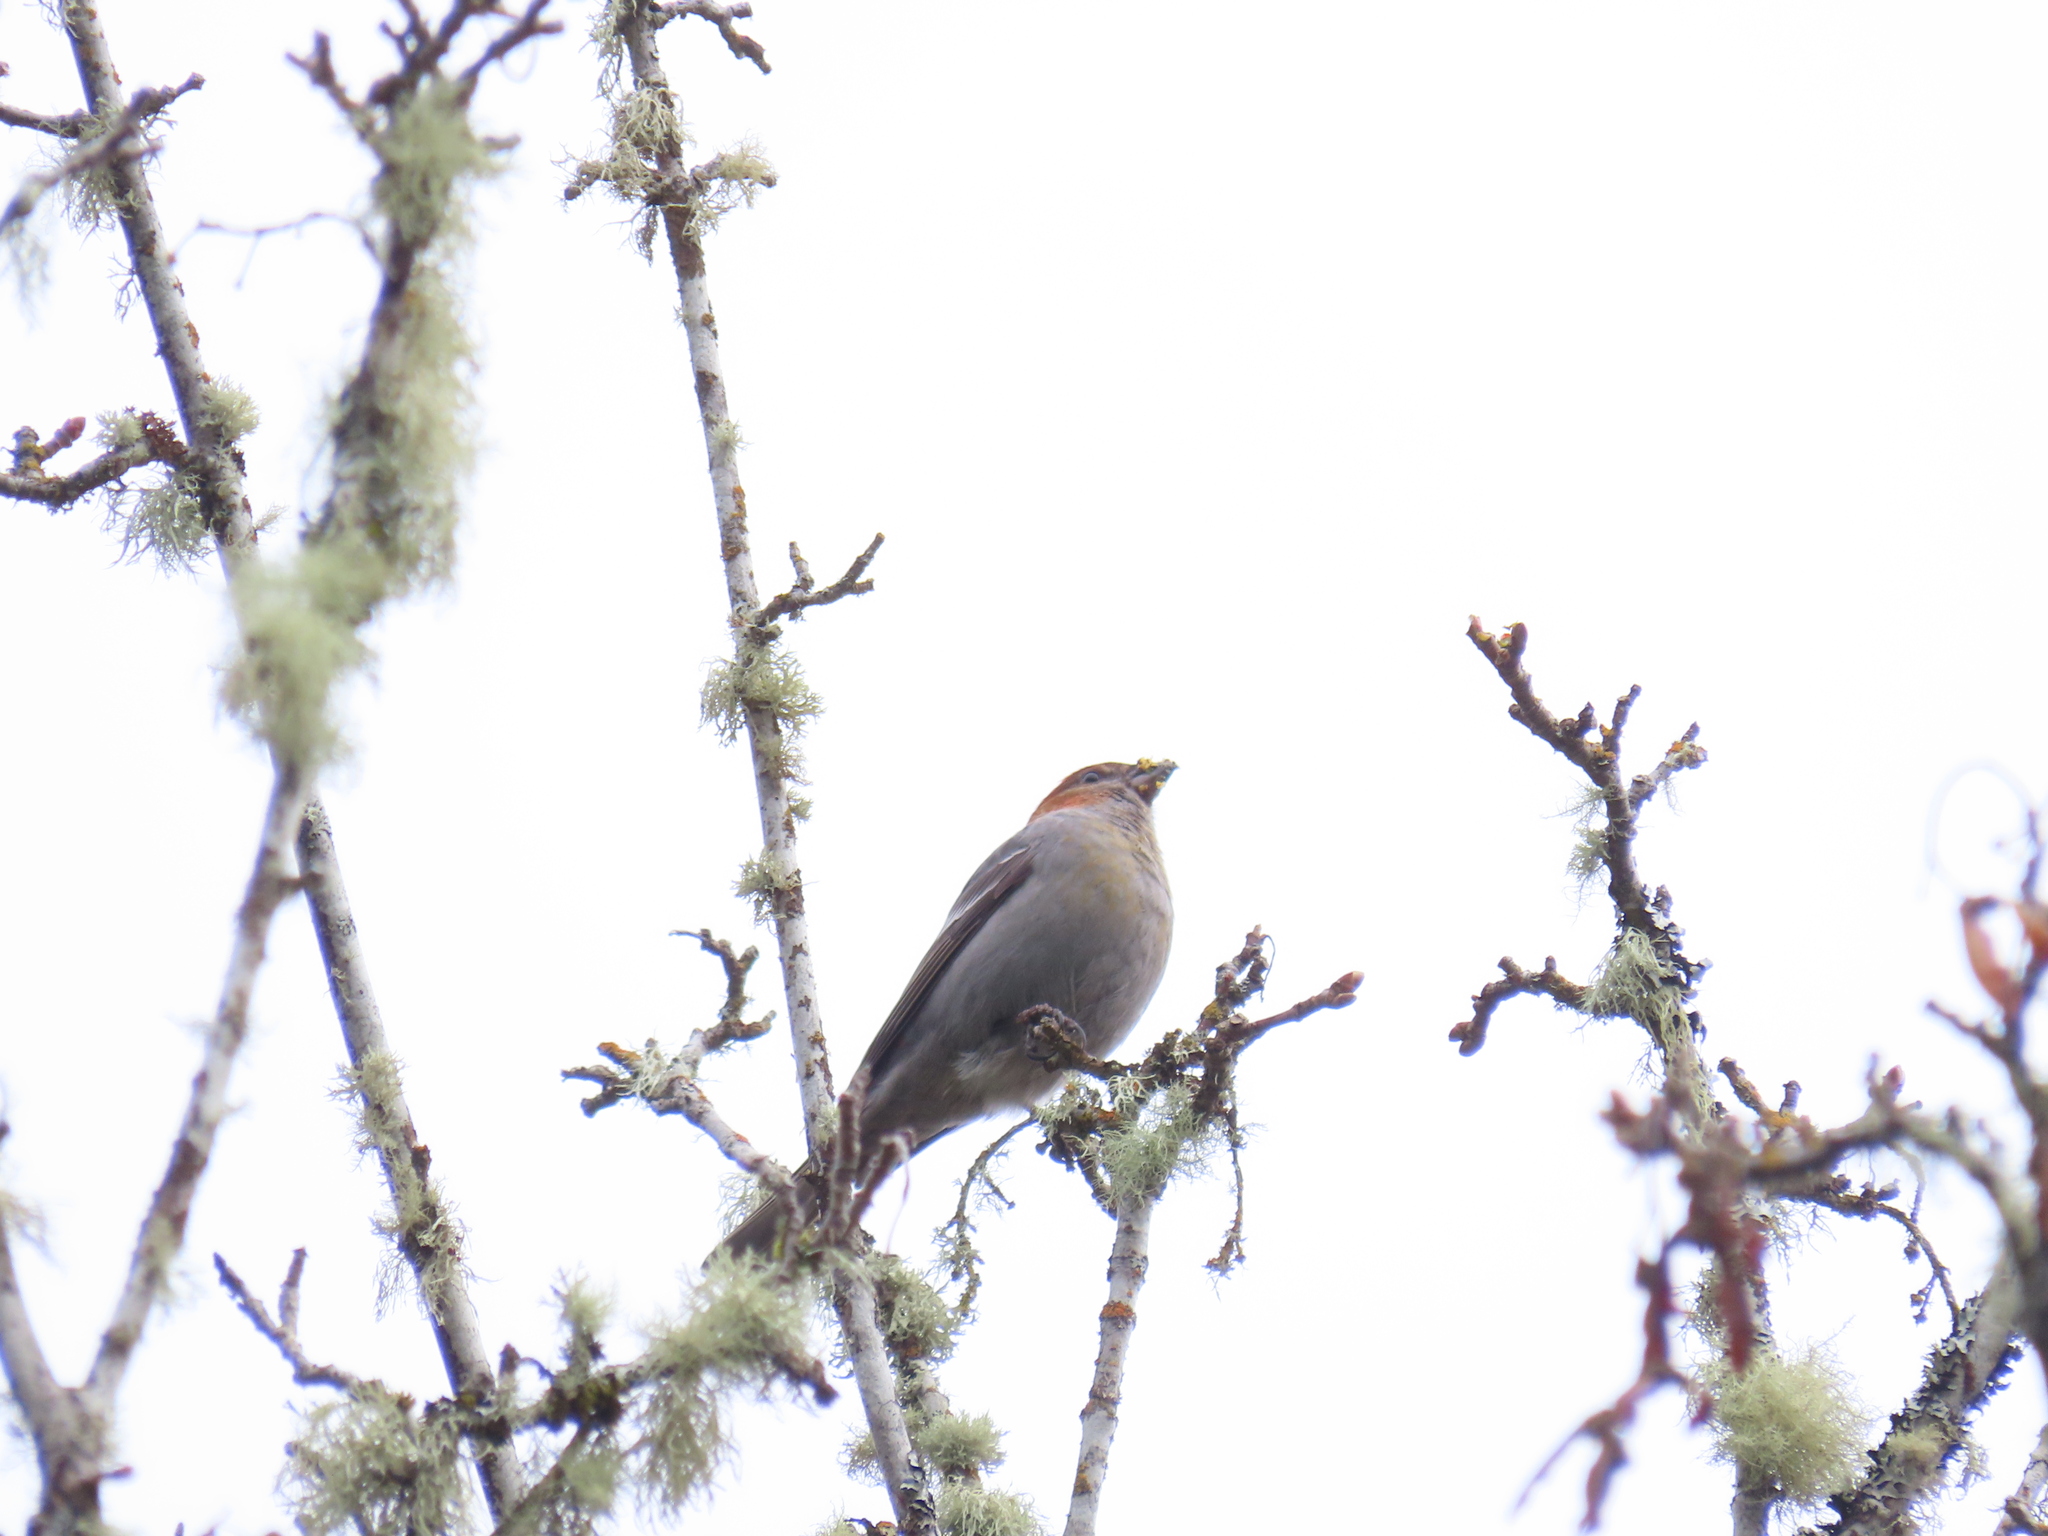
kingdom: Animalia
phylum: Chordata
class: Aves
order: Passeriformes
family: Fringillidae
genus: Pinicola
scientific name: Pinicola enucleator
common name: Pine grosbeak
